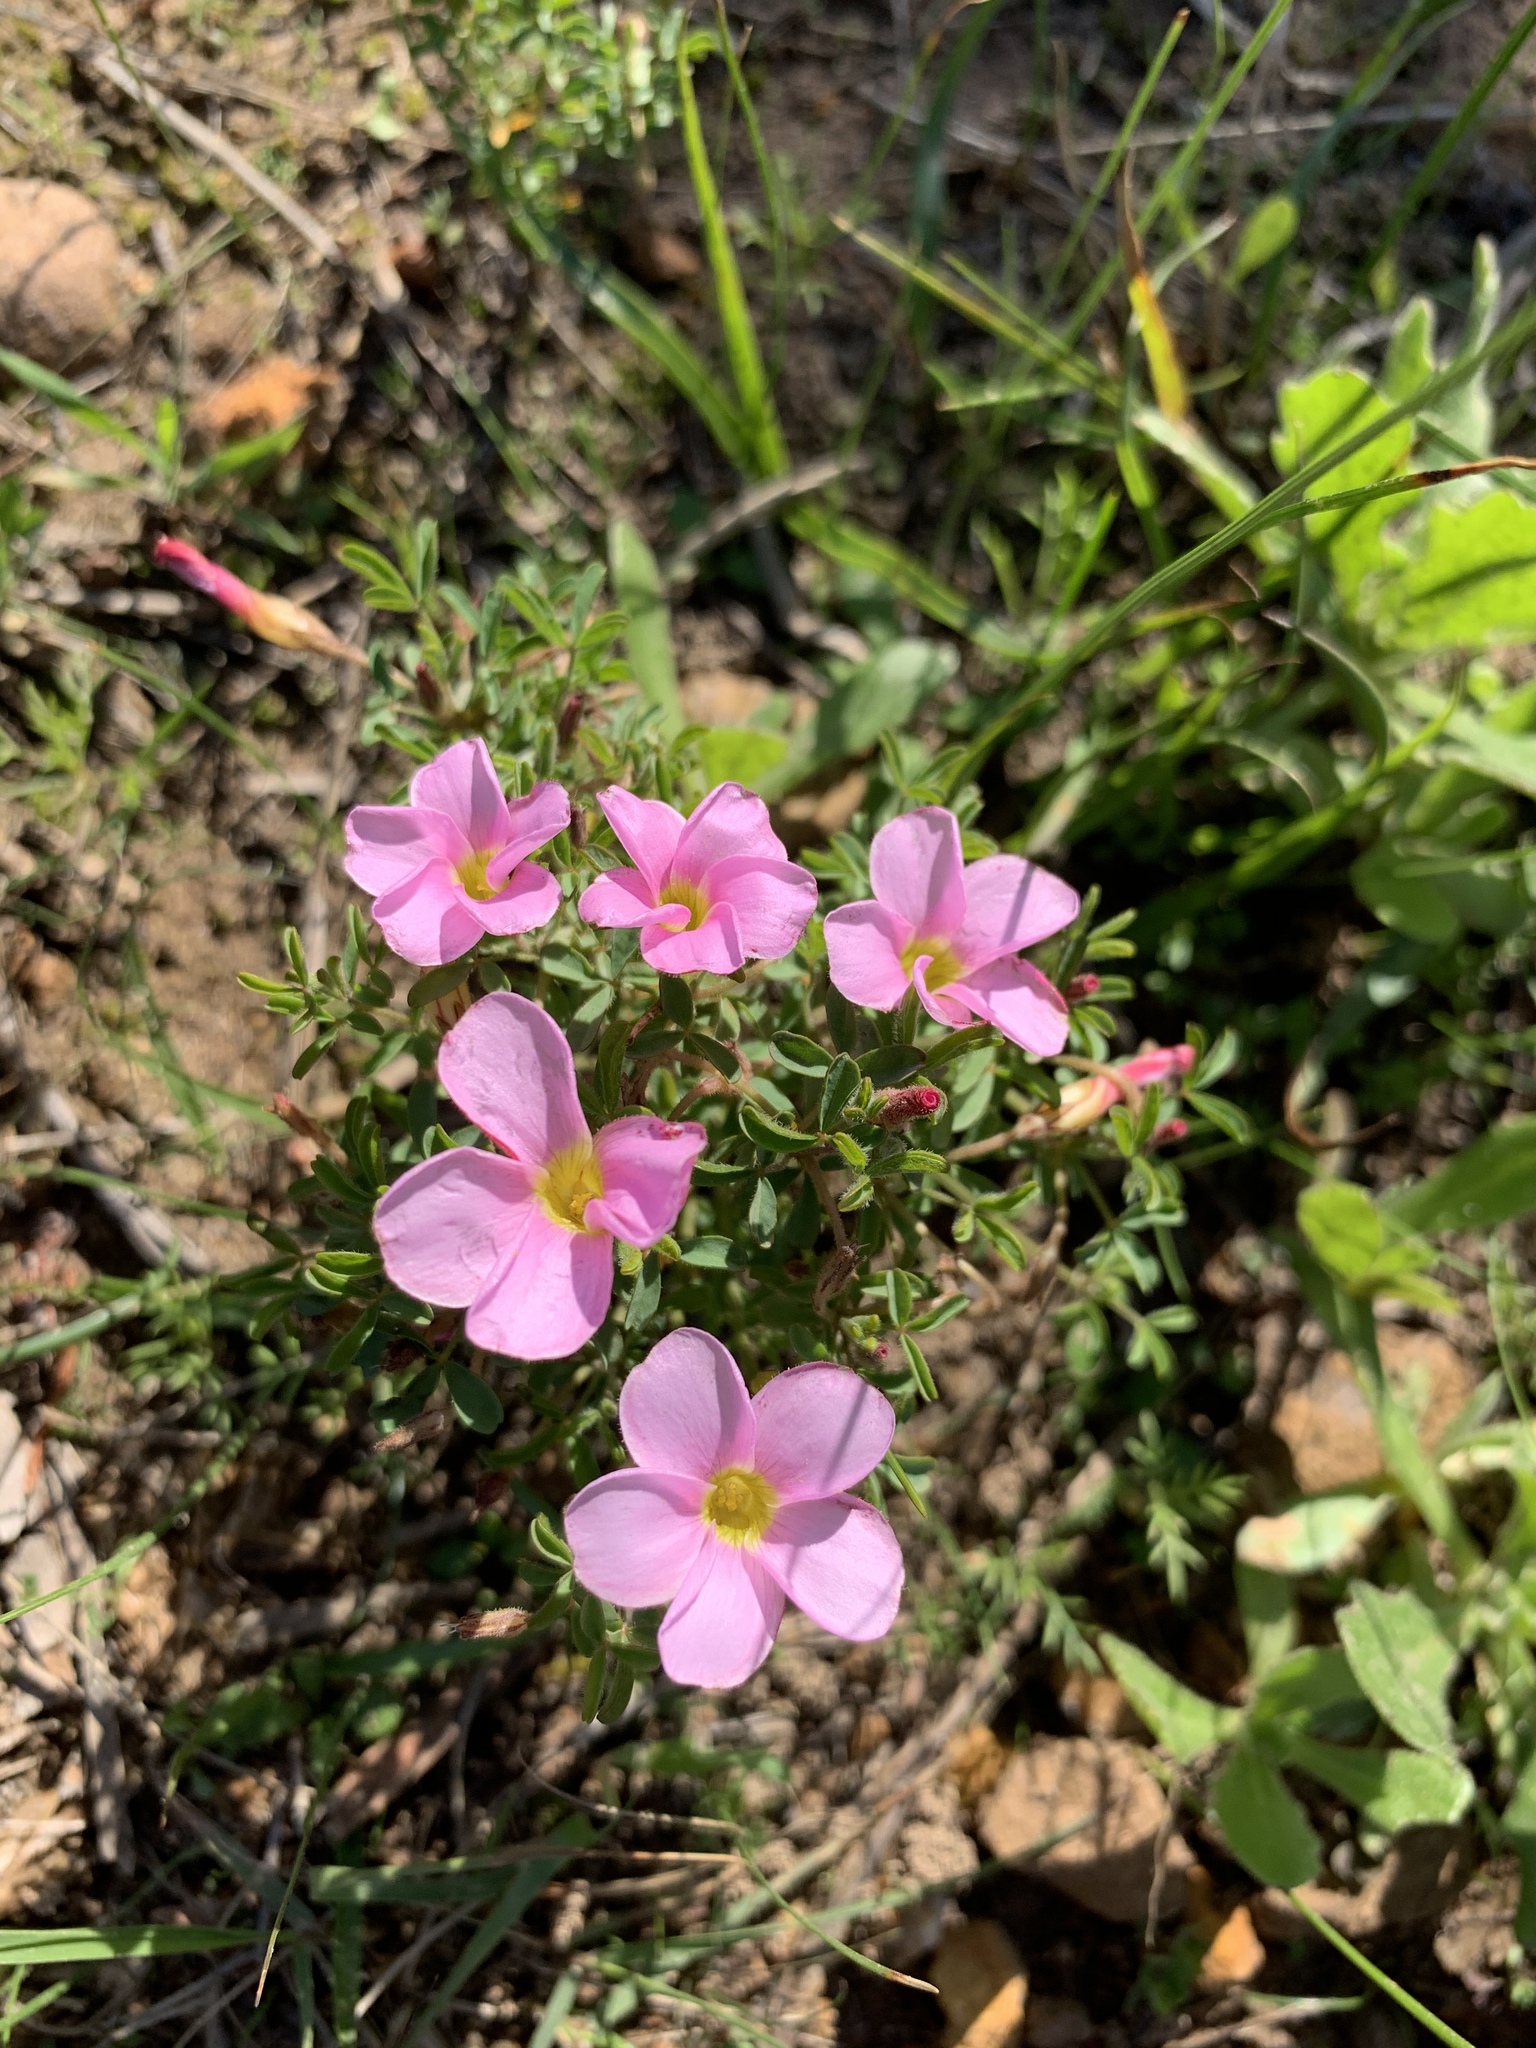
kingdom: Plantae
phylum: Tracheophyta
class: Magnoliopsida
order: Oxalidales
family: Oxalidaceae
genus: Oxalis
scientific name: Oxalis multicaulis
